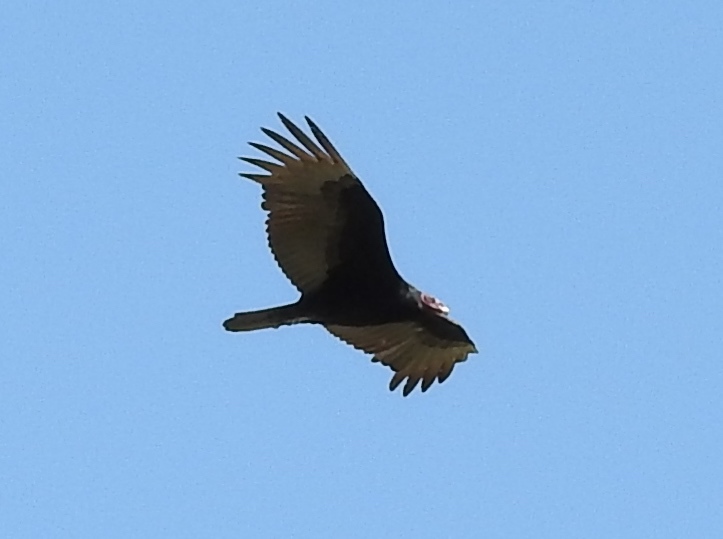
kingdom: Animalia
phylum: Chordata
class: Aves
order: Accipitriformes
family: Cathartidae
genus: Cathartes
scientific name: Cathartes aura
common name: Turkey vulture
